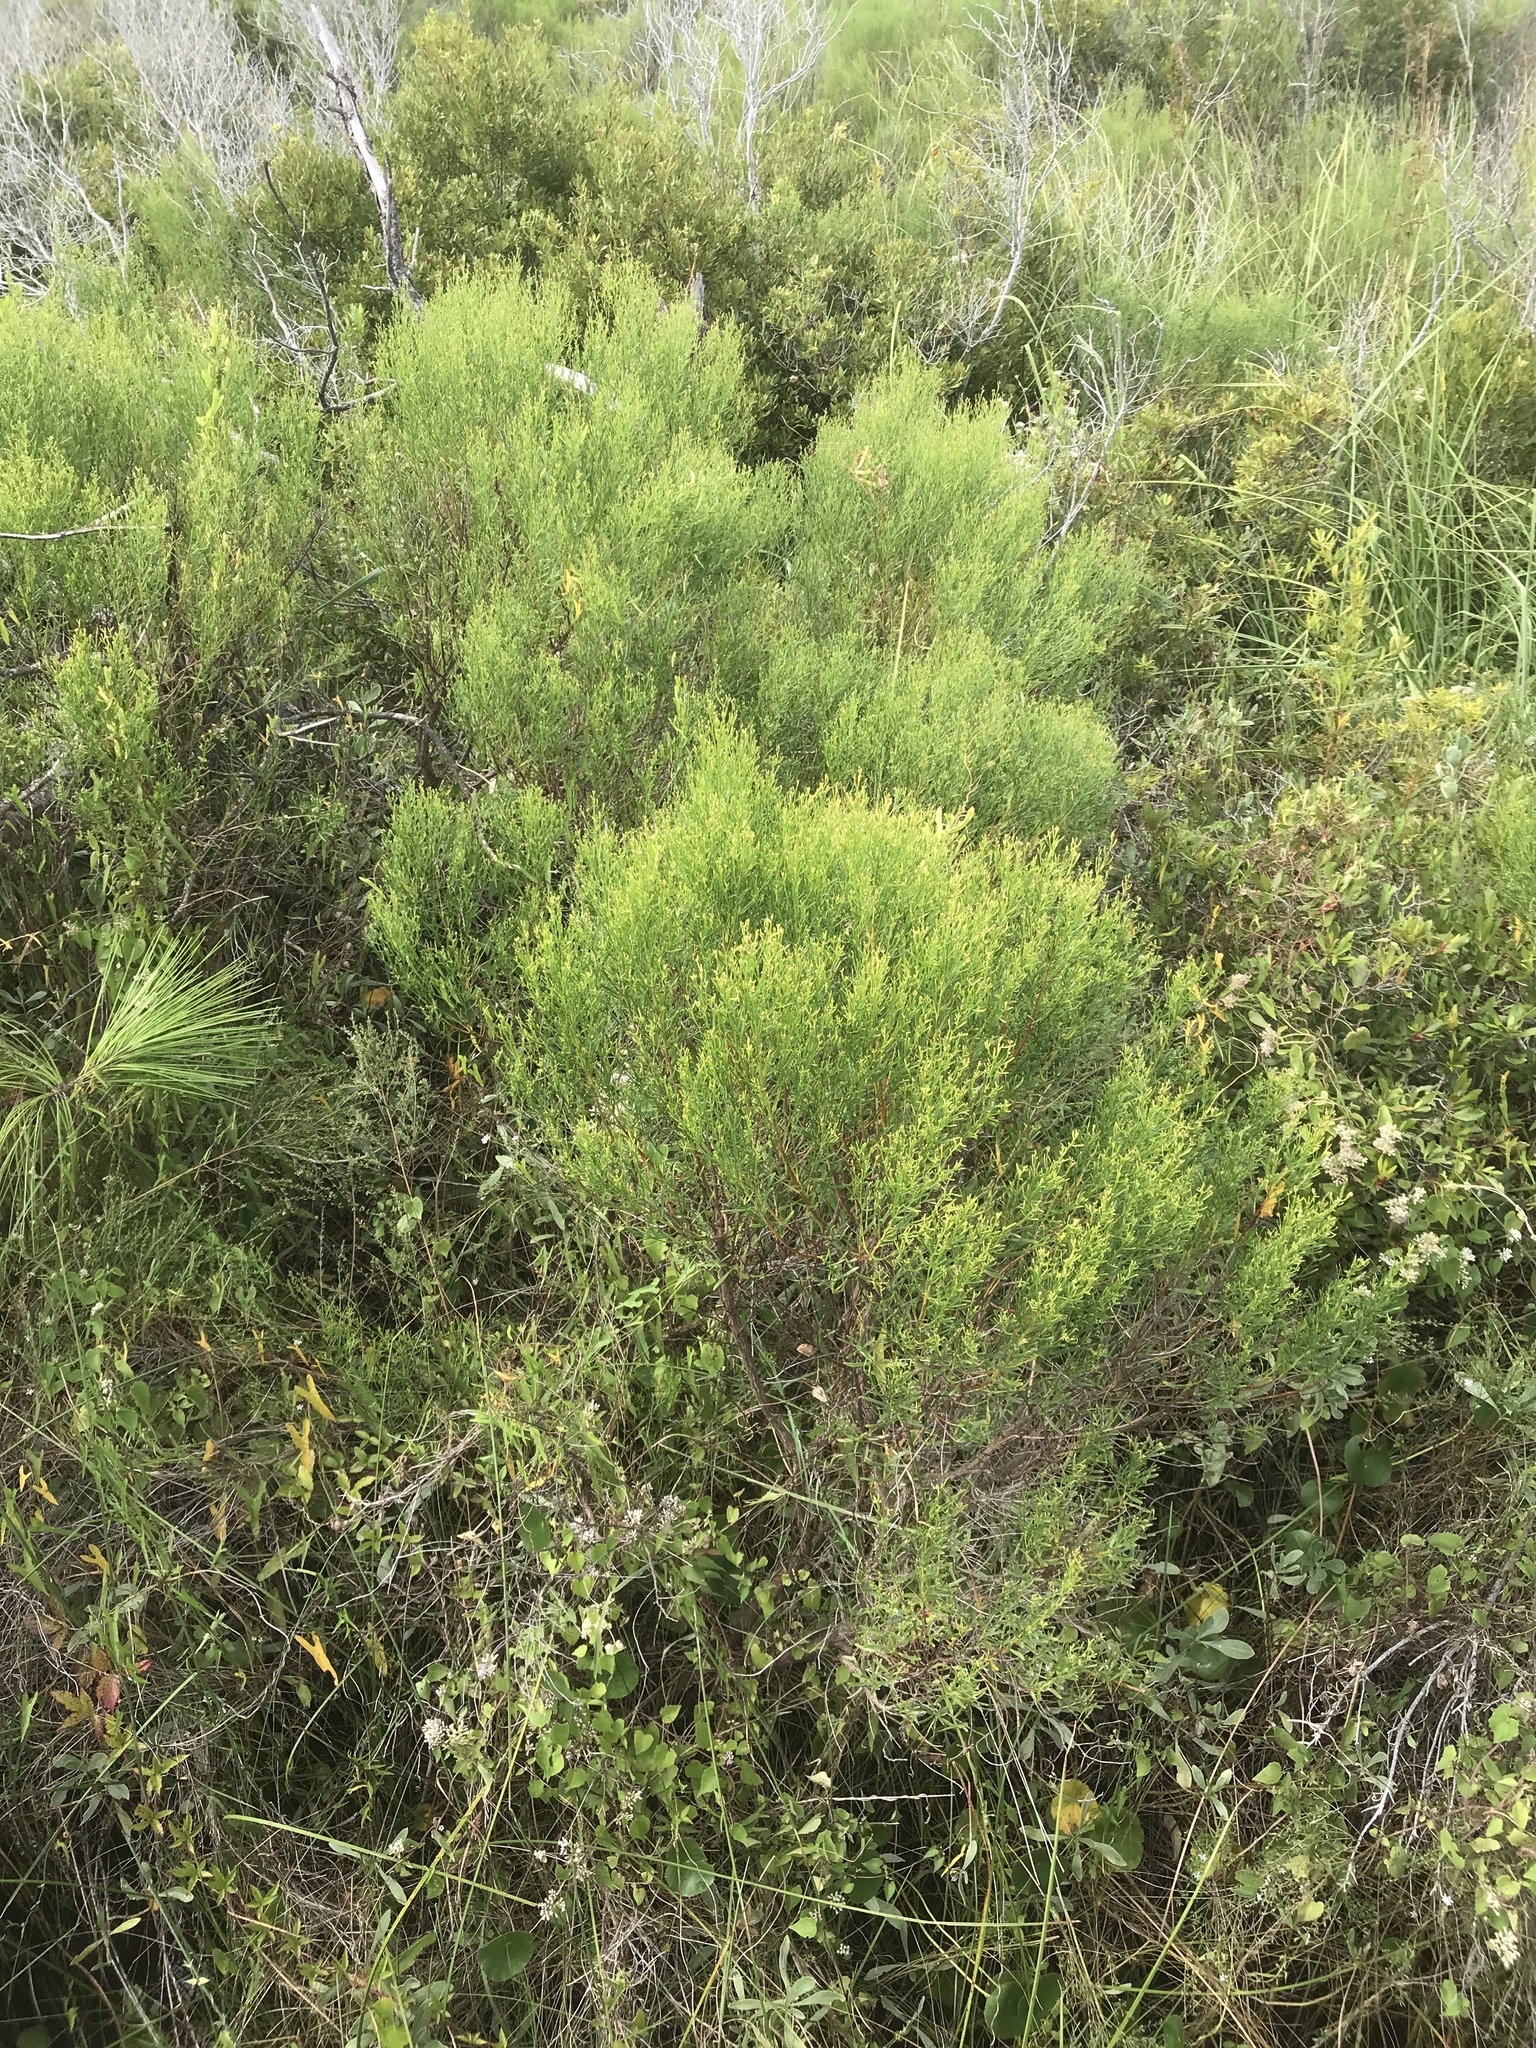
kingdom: Plantae
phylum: Tracheophyta
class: Magnoliopsida
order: Asterales
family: Asteraceae
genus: Baccharis
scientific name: Baccharis angustifolia
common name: Narrow-leaf baccharis
